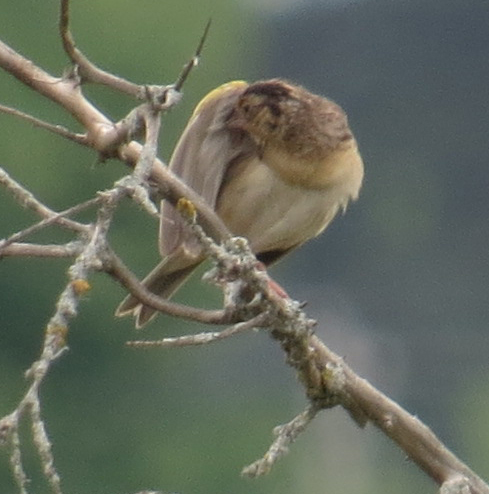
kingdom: Animalia
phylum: Chordata
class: Aves
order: Passeriformes
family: Passerellidae
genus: Ammodramus
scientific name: Ammodramus savannarum
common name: Grasshopper sparrow
